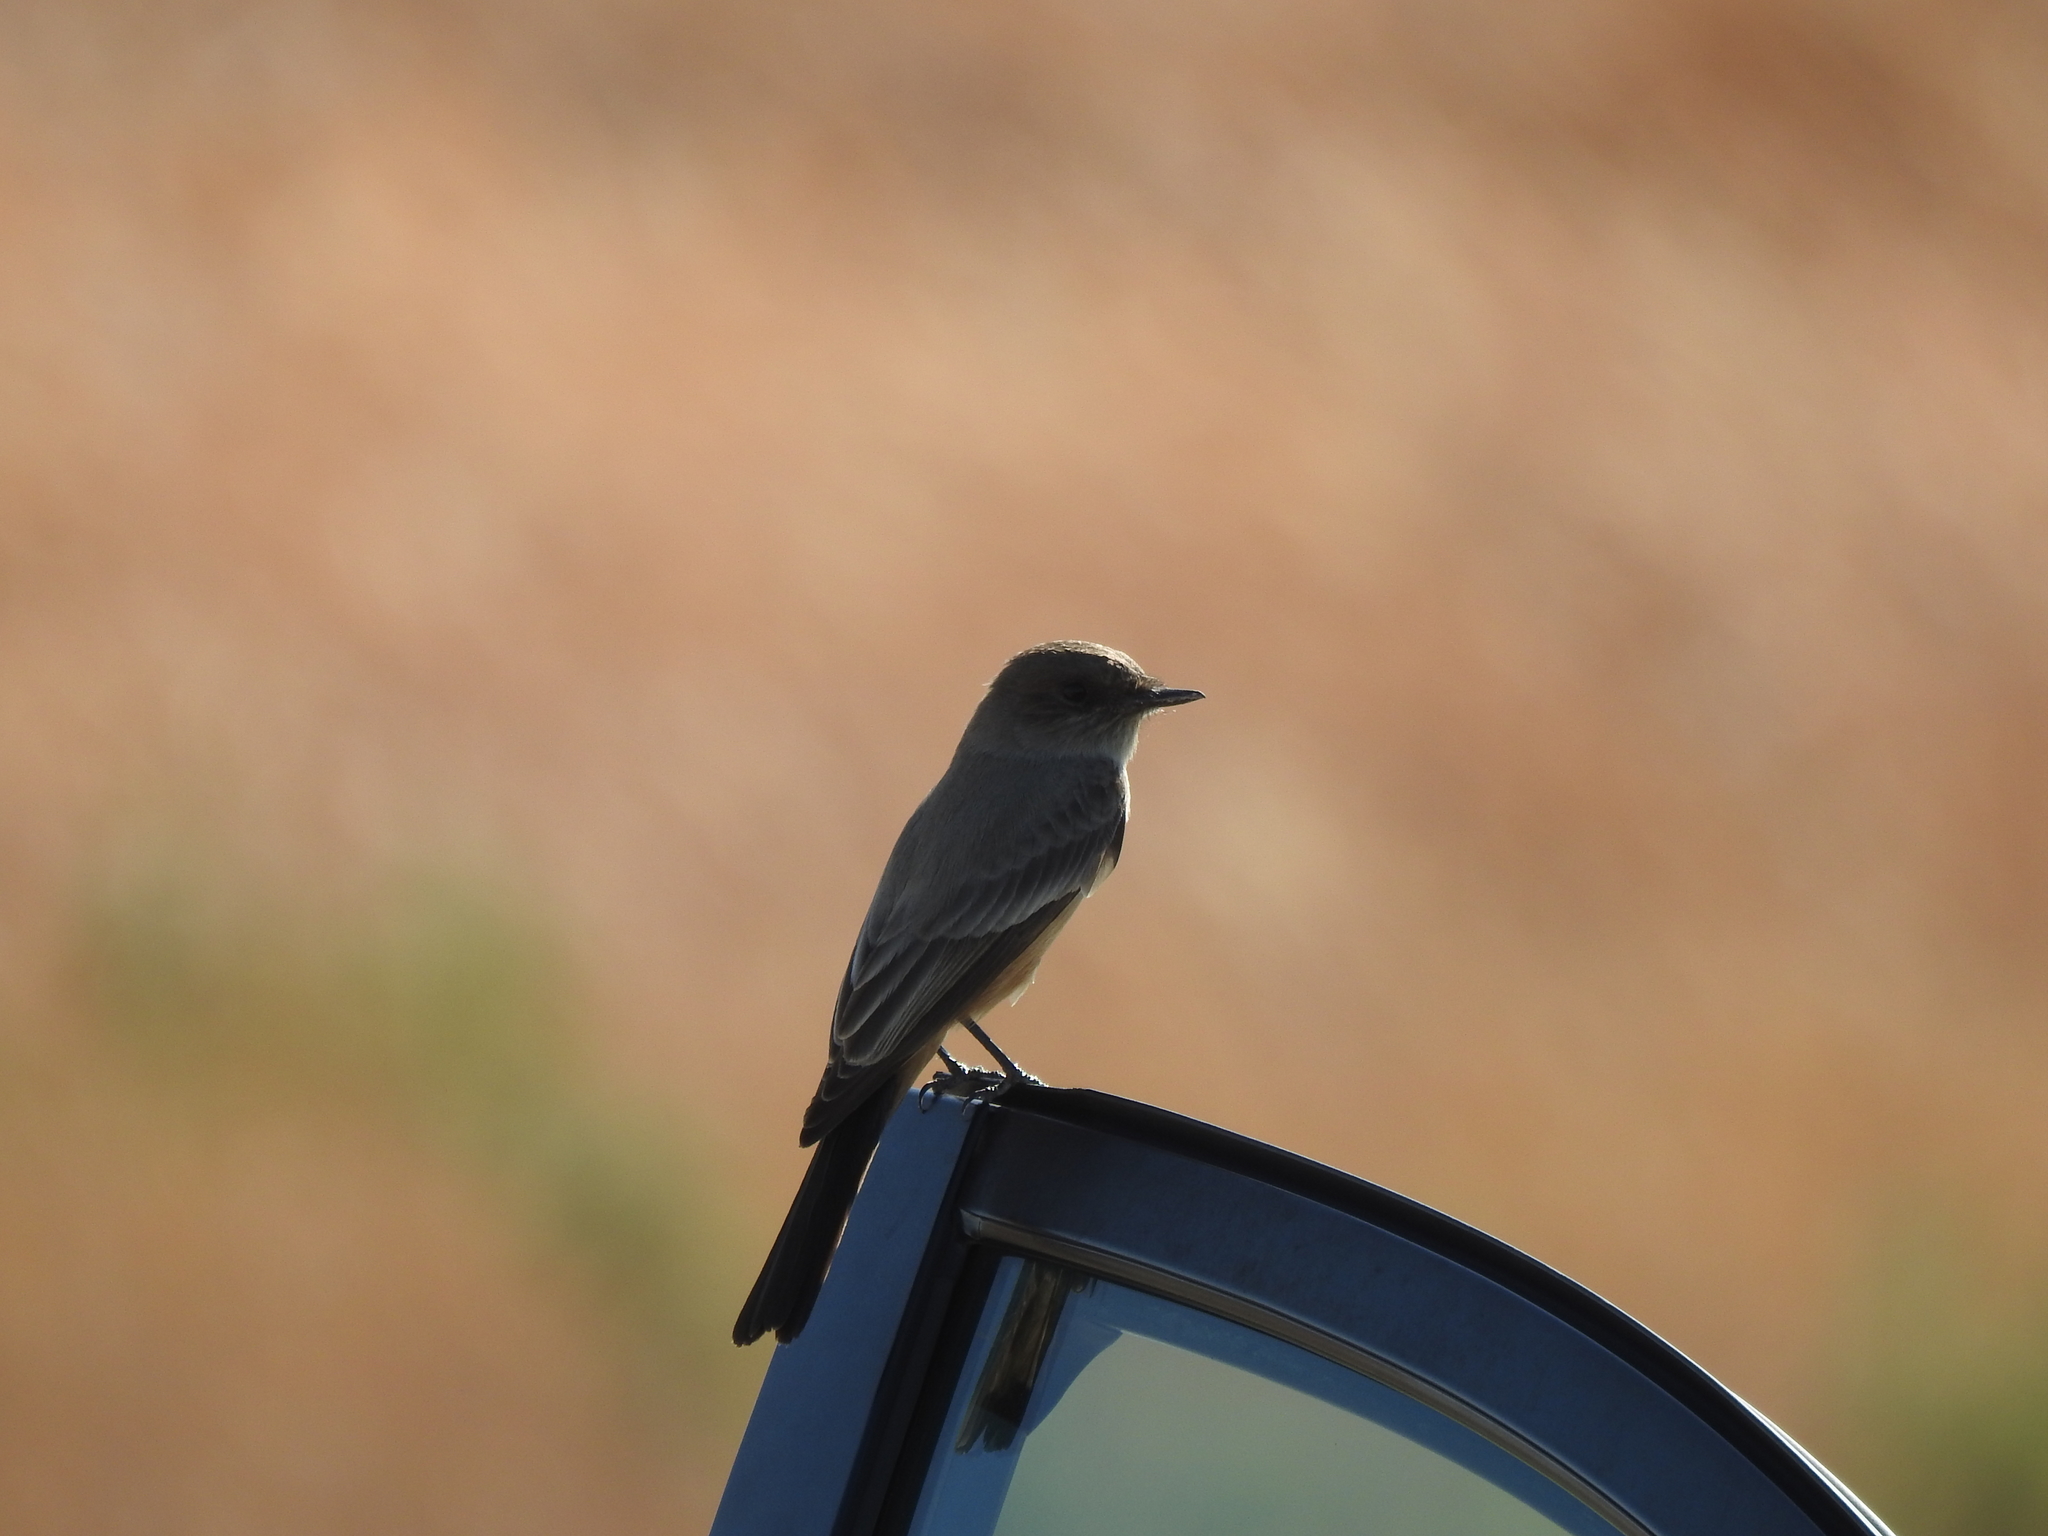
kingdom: Animalia
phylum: Chordata
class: Aves
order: Passeriformes
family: Tyrannidae
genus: Sayornis
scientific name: Sayornis saya
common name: Say's phoebe
